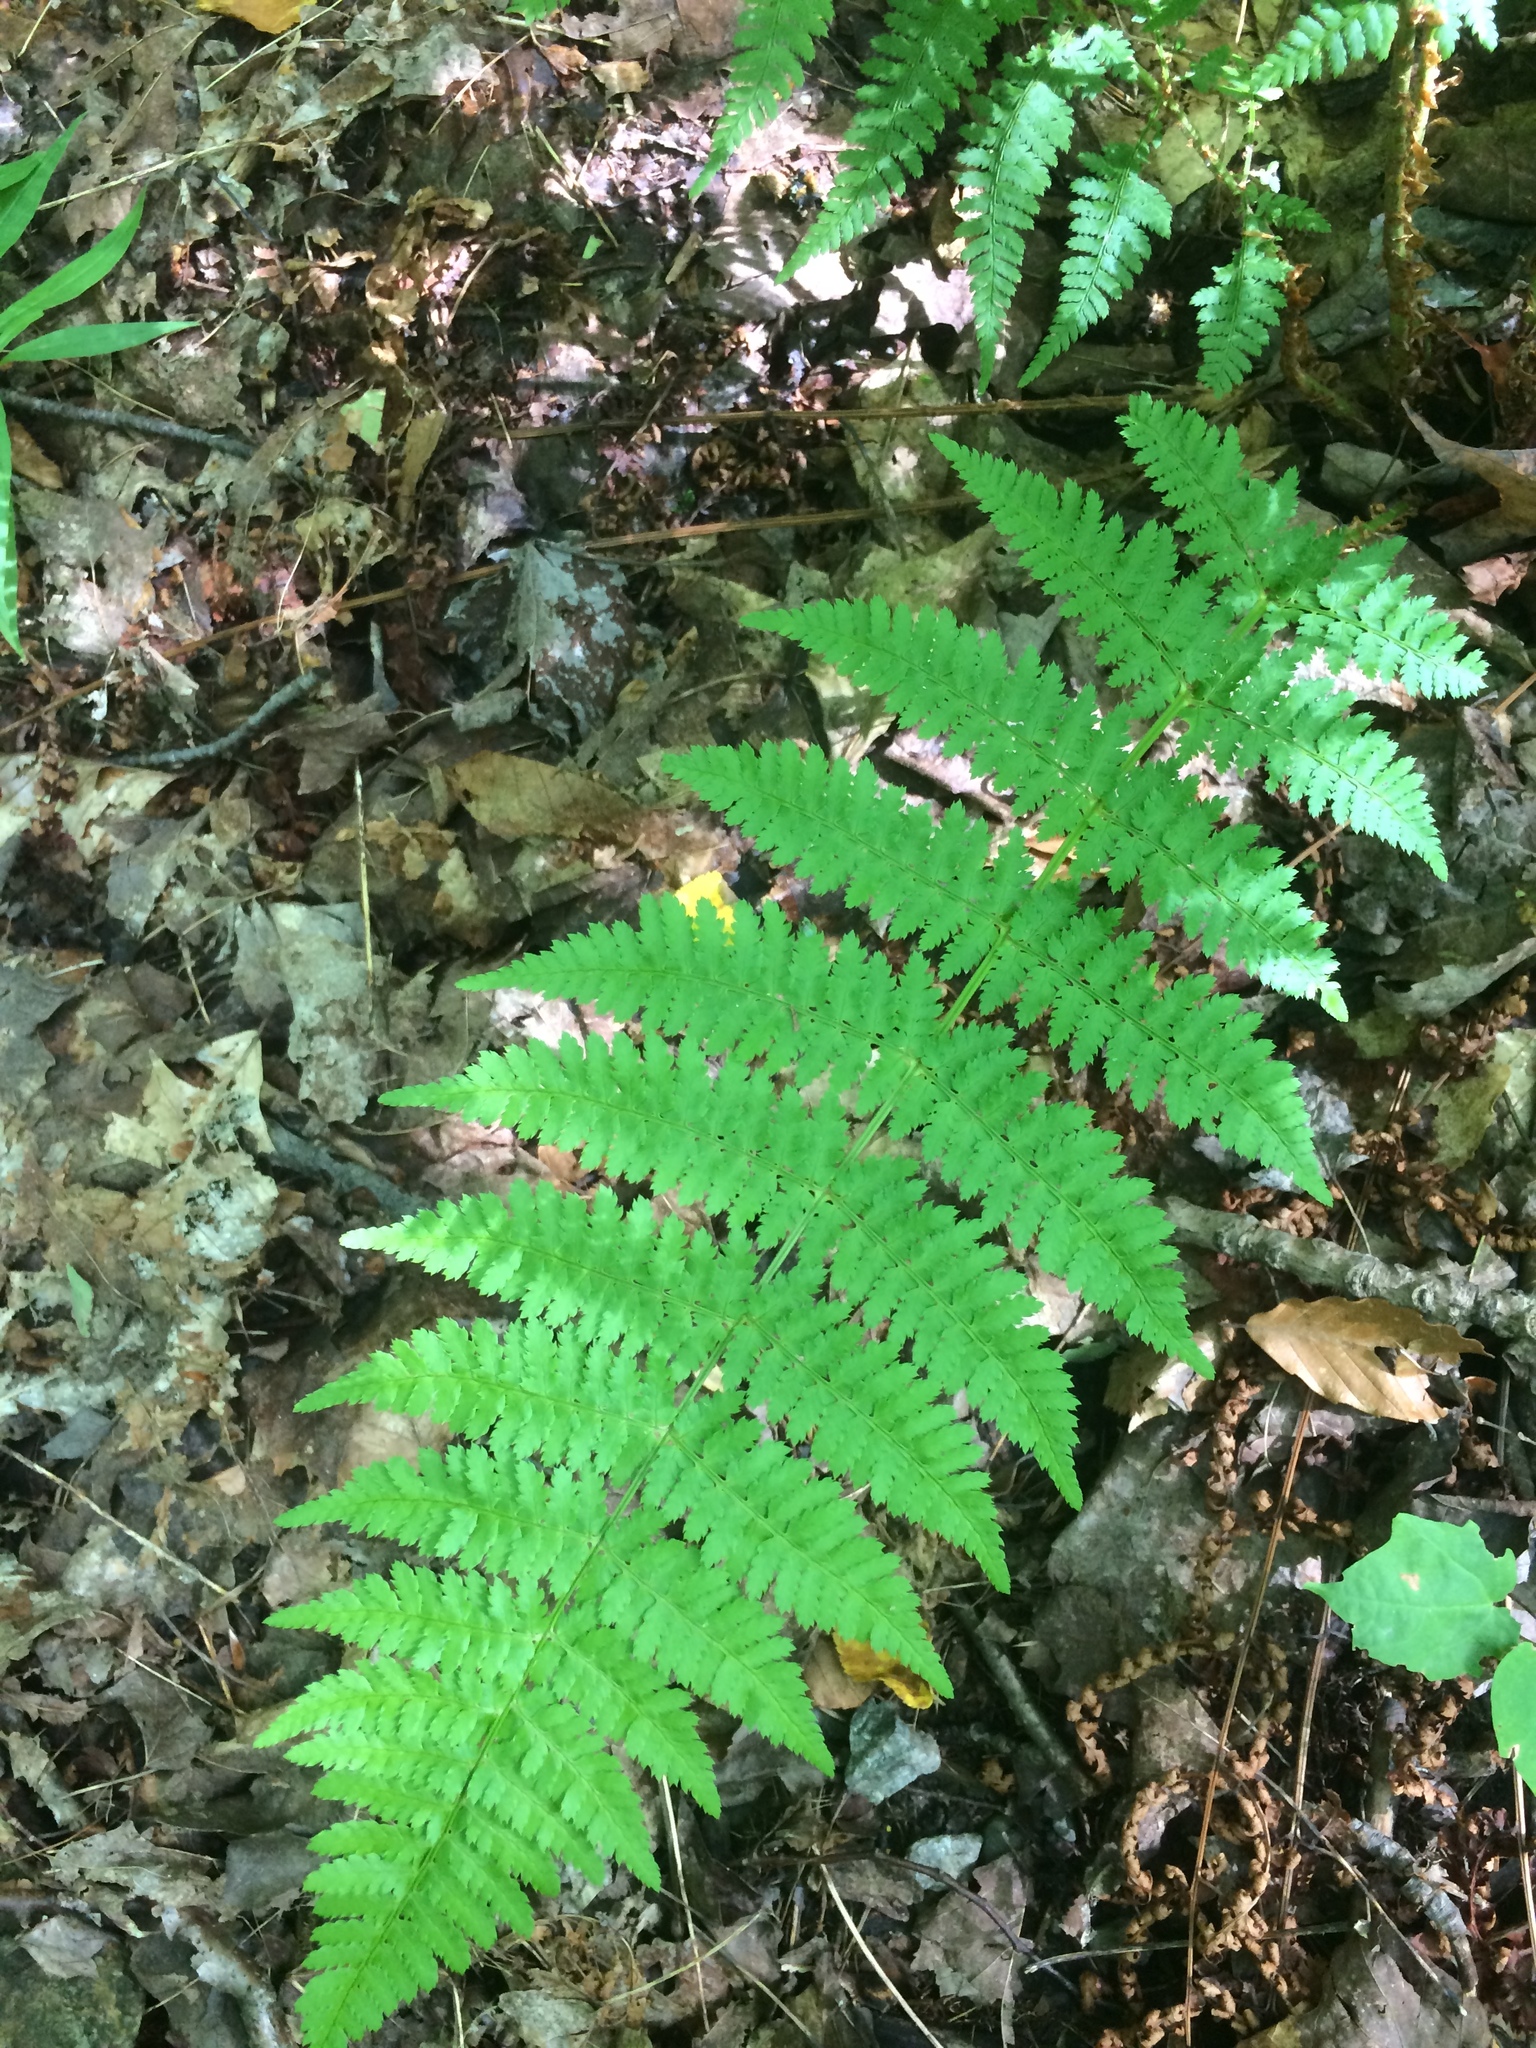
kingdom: Plantae
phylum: Tracheophyta
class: Polypodiopsida
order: Polypodiales
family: Dryopteridaceae
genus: Dryopteris
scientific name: Dryopteris intermedia
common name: Evergreen wood fern
